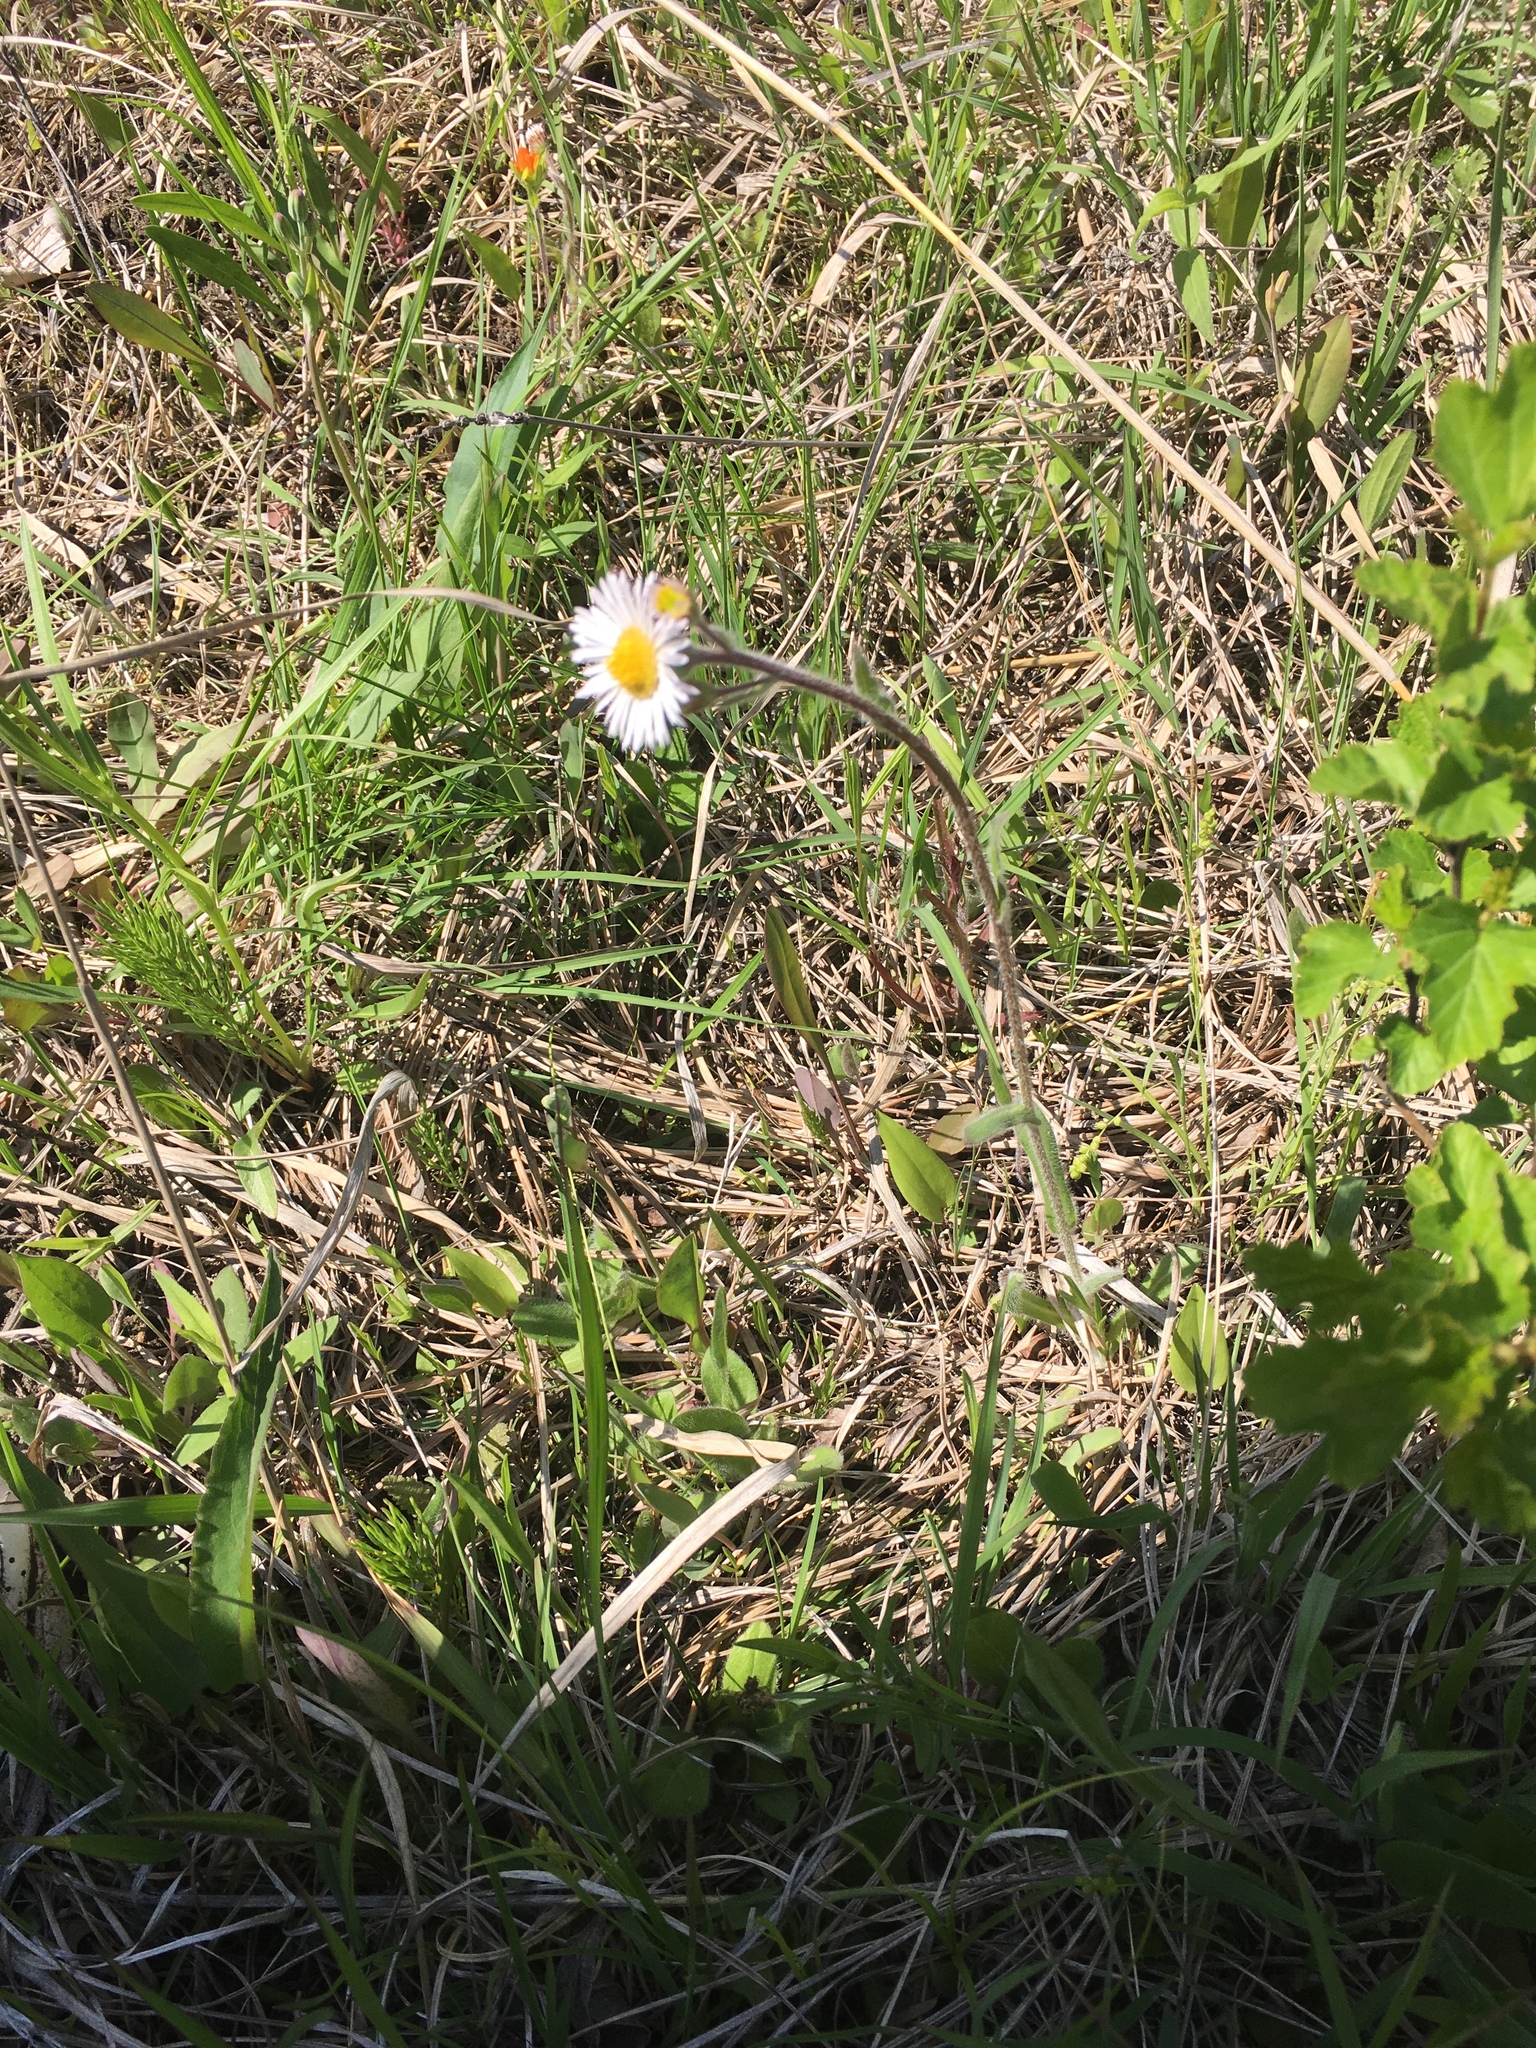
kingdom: Plantae
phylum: Tracheophyta
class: Magnoliopsida
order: Asterales
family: Asteraceae
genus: Erigeron
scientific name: Erigeron pulchellus
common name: Hairy fleabane
